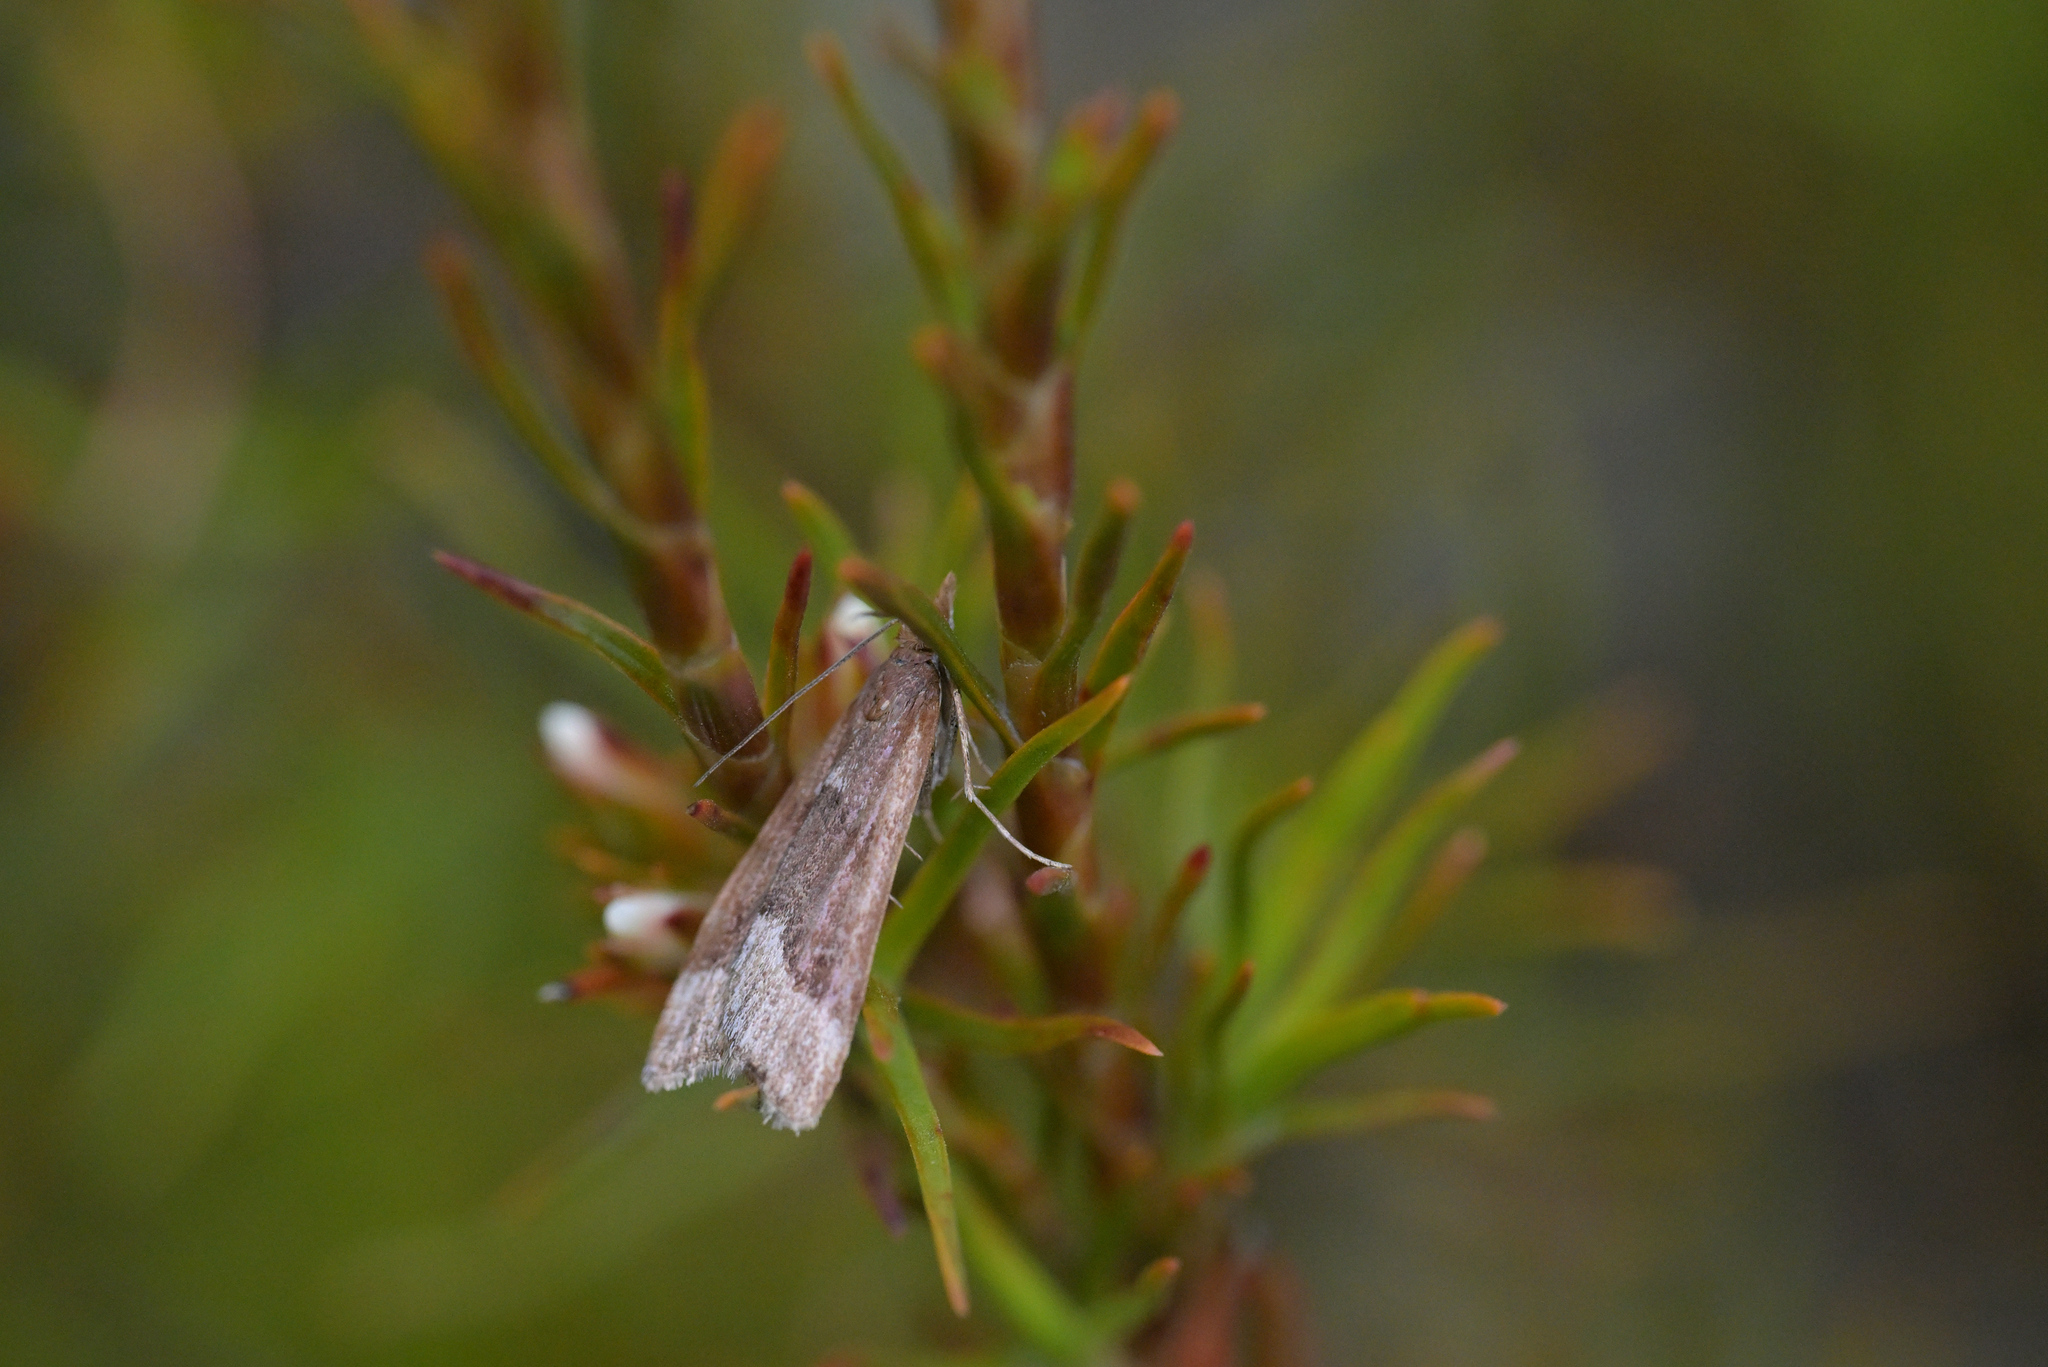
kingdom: Animalia
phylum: Arthropoda
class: Insecta
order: Lepidoptera
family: Crambidae
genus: Eudonia
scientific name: Eudonia feredayi
